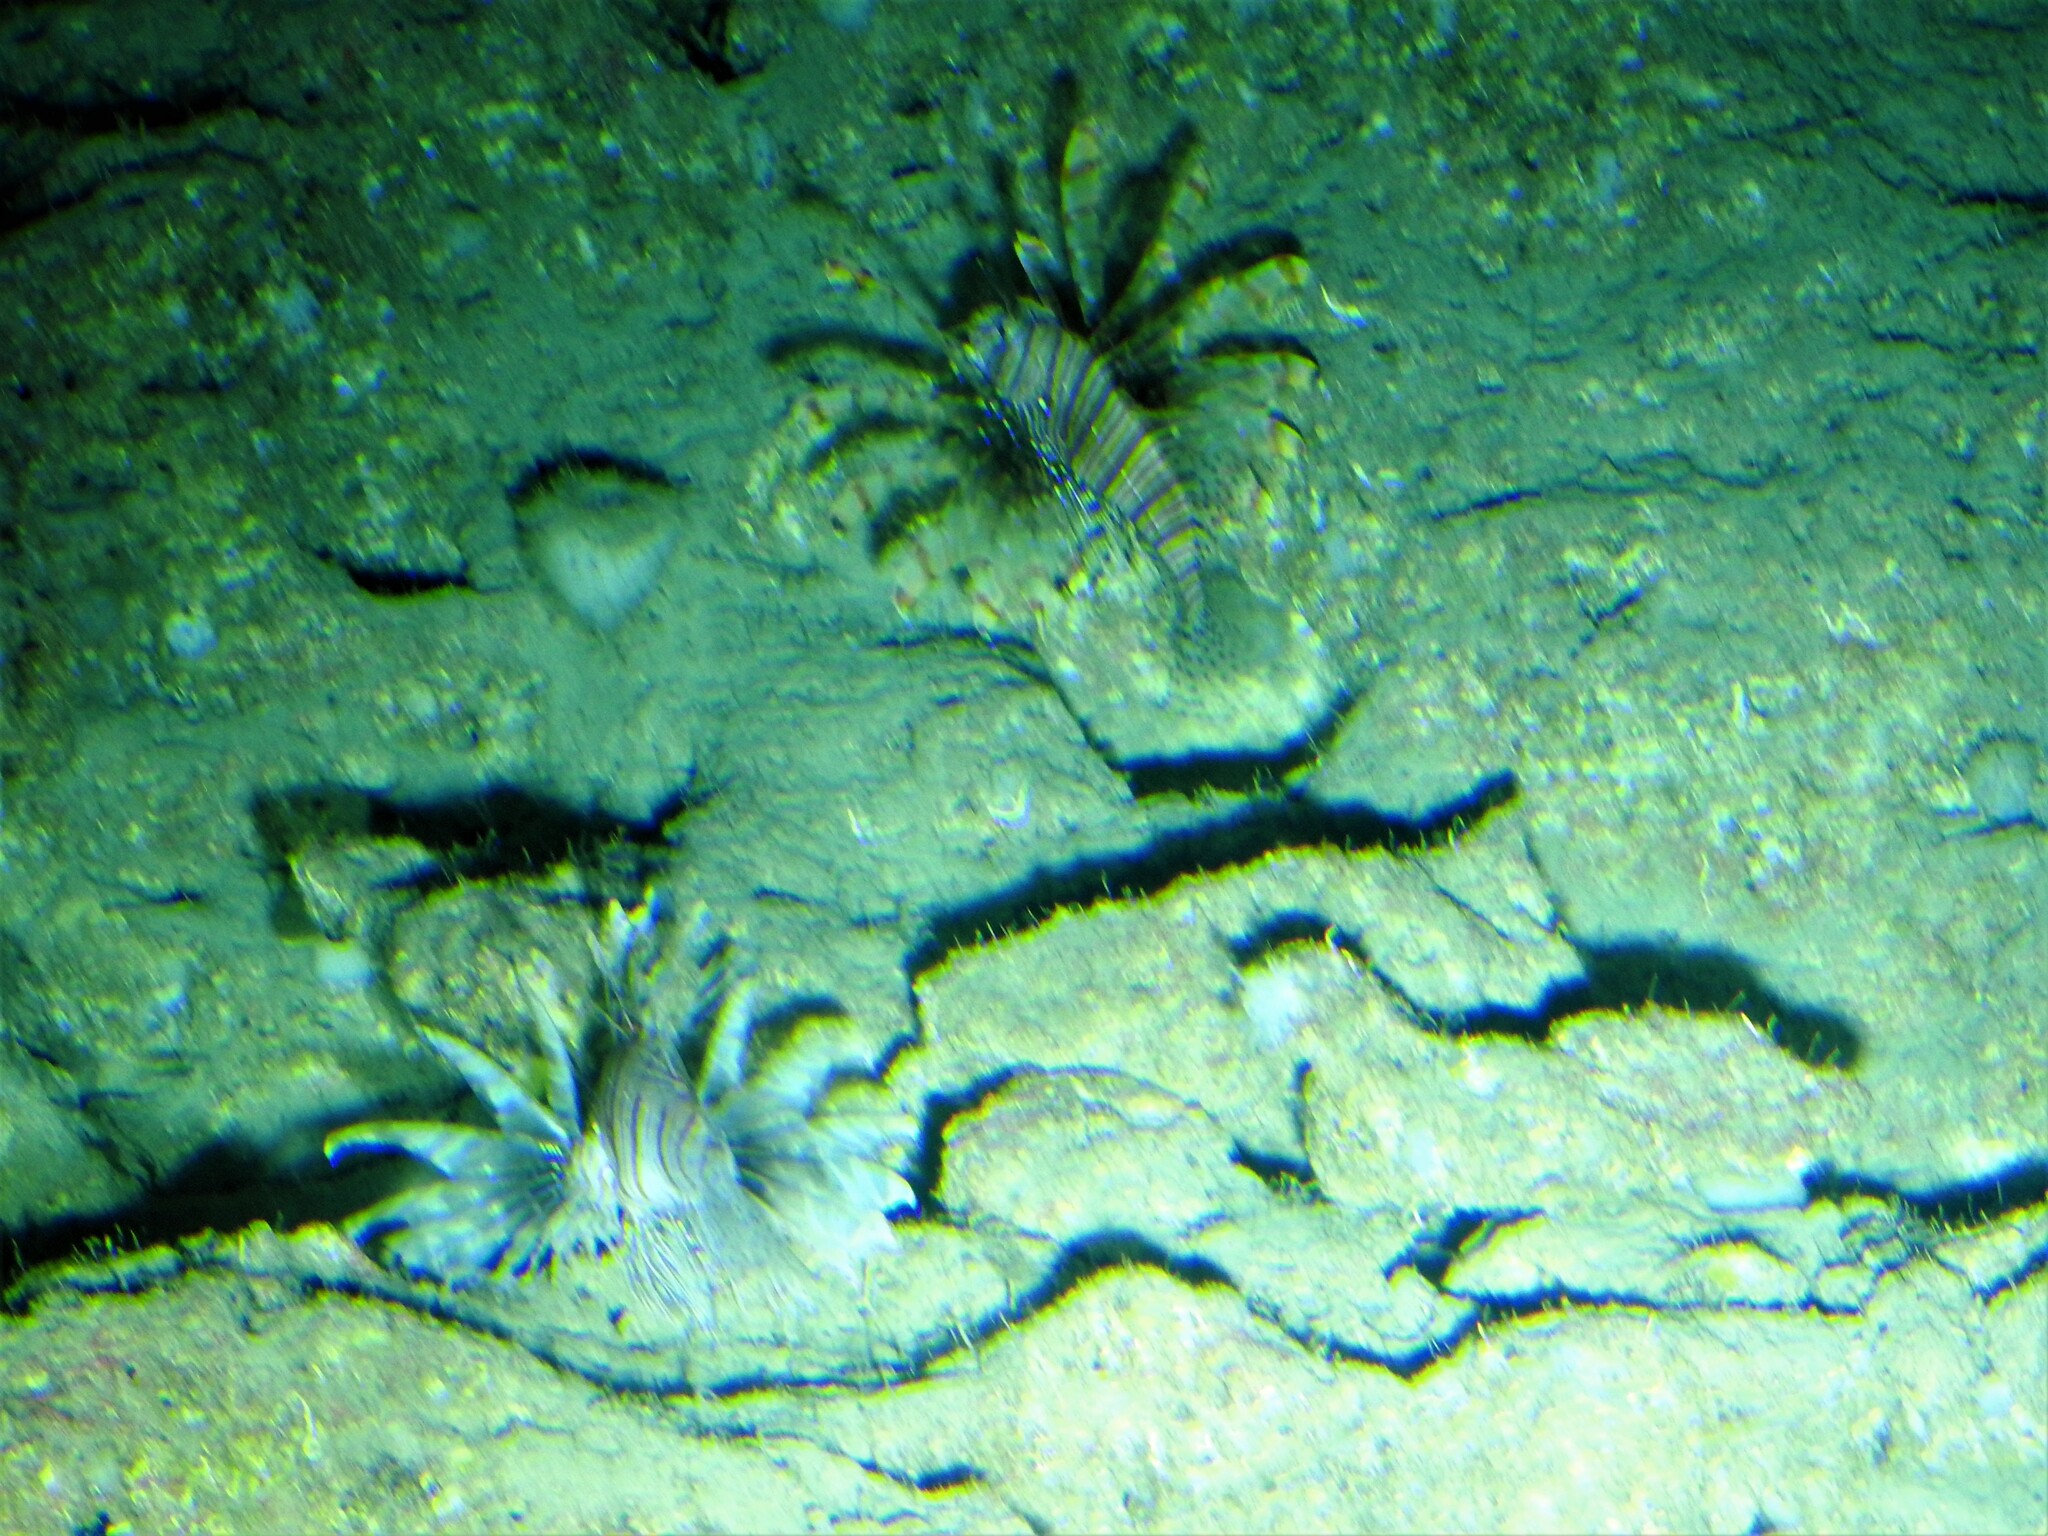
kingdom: Animalia
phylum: Chordata
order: Scorpaeniformes
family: Scorpaenidae
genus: Pterois
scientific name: Pterois volitans
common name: Lionfish
